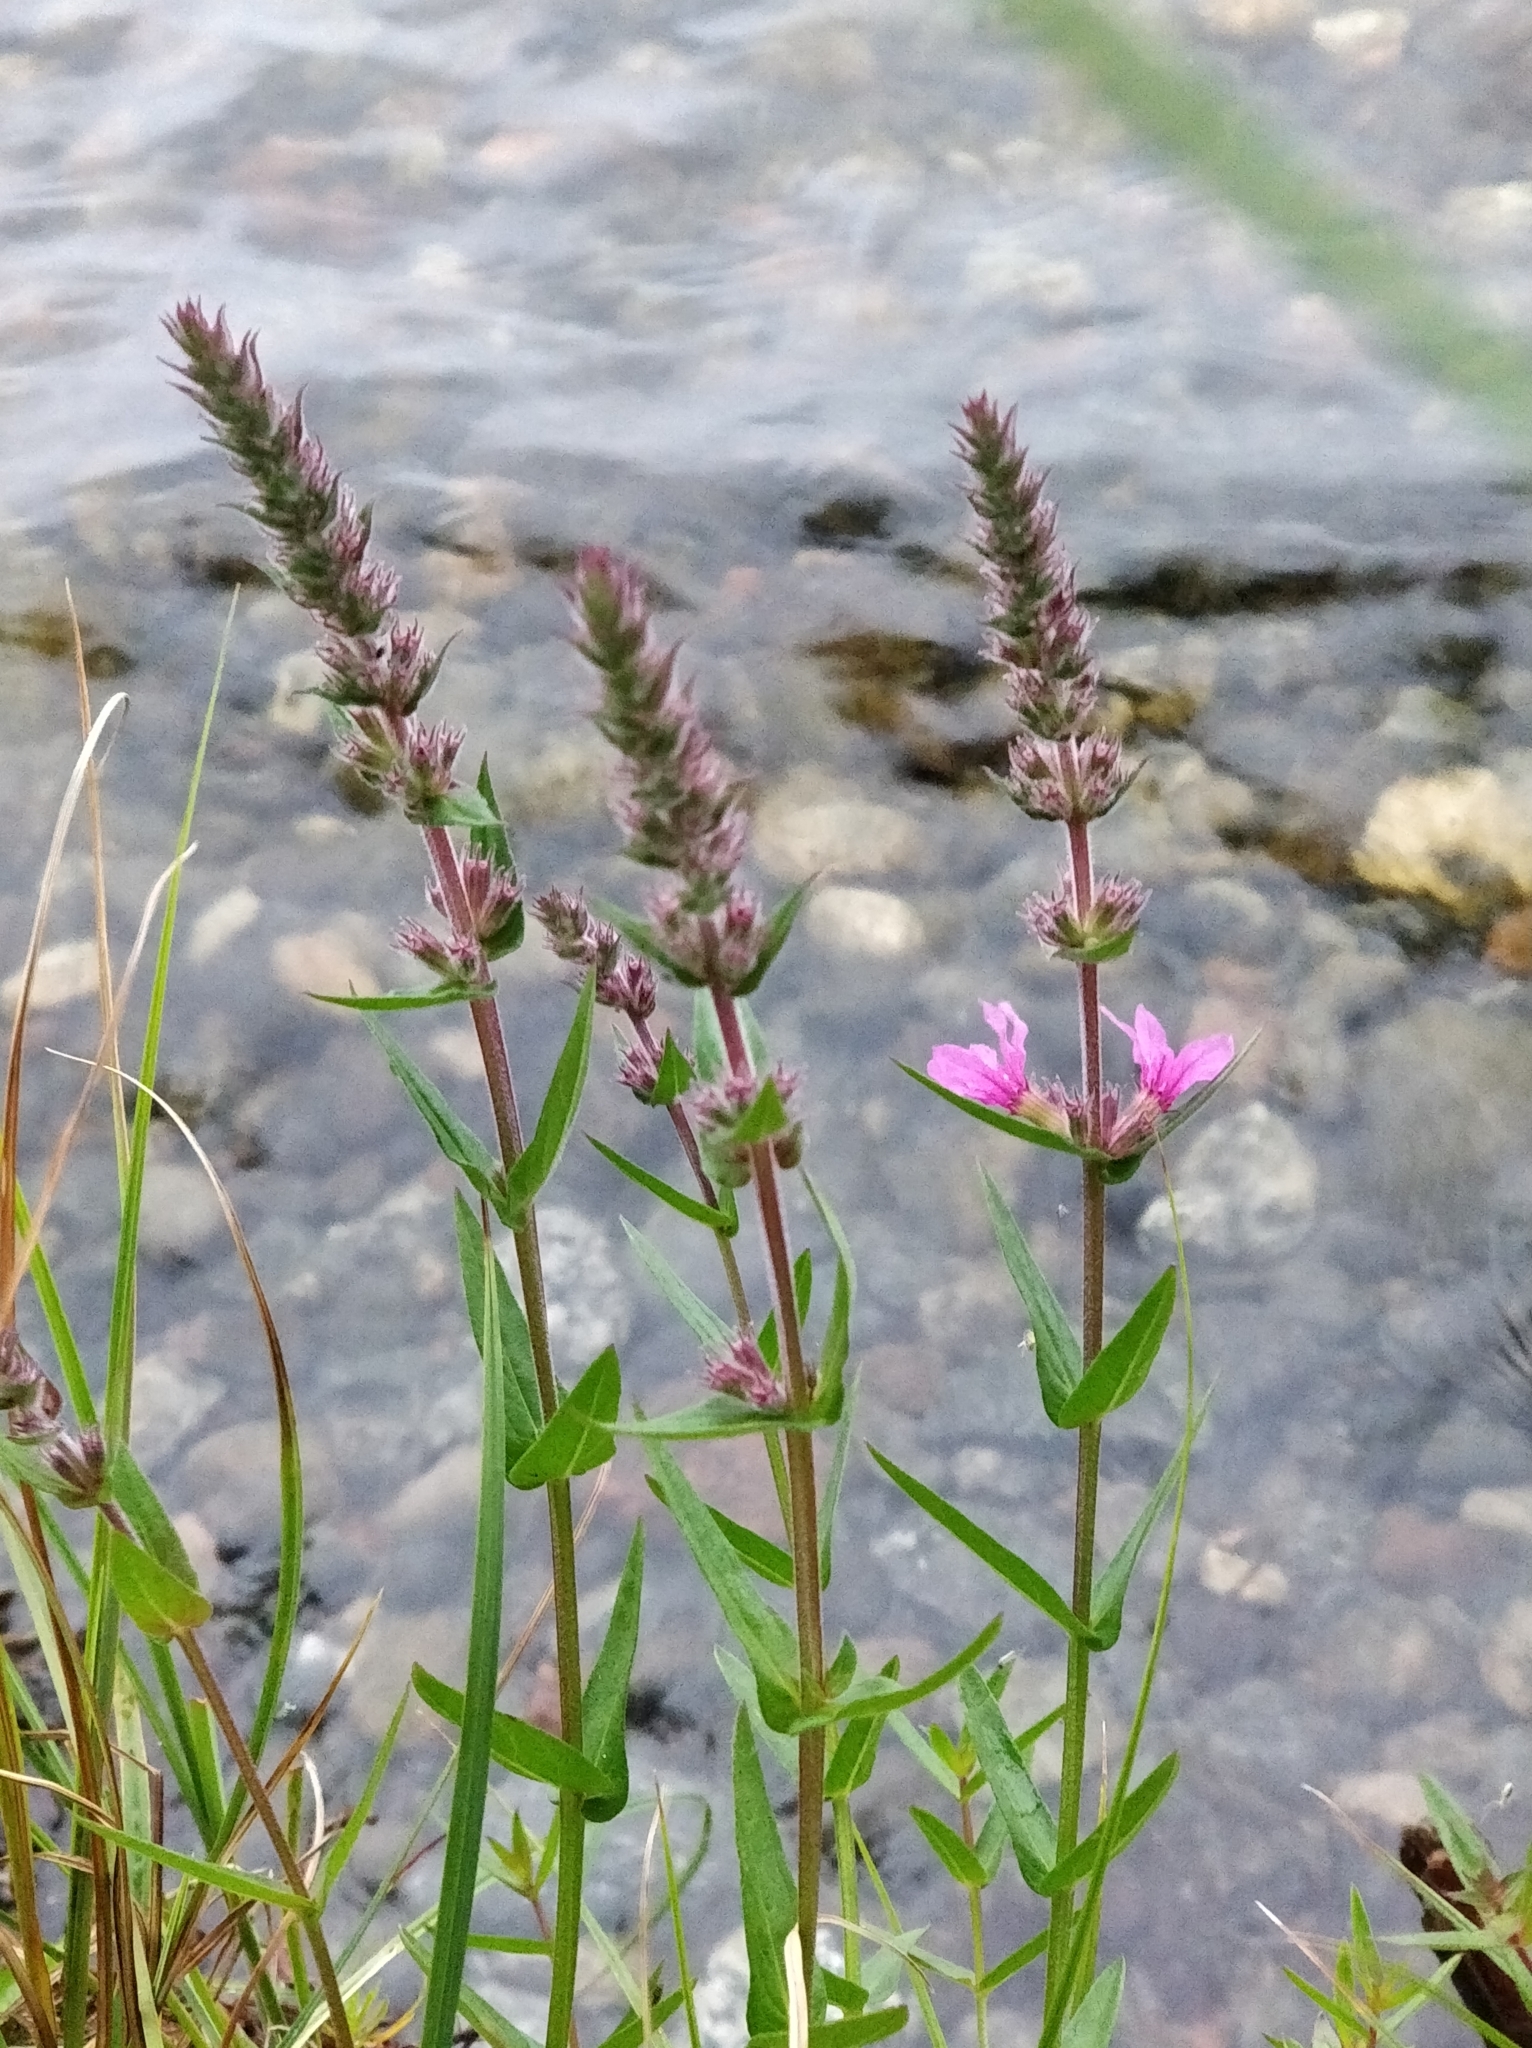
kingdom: Plantae
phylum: Tracheophyta
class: Magnoliopsida
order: Myrtales
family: Lythraceae
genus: Lythrum
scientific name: Lythrum salicaria
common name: Purple loosestrife
